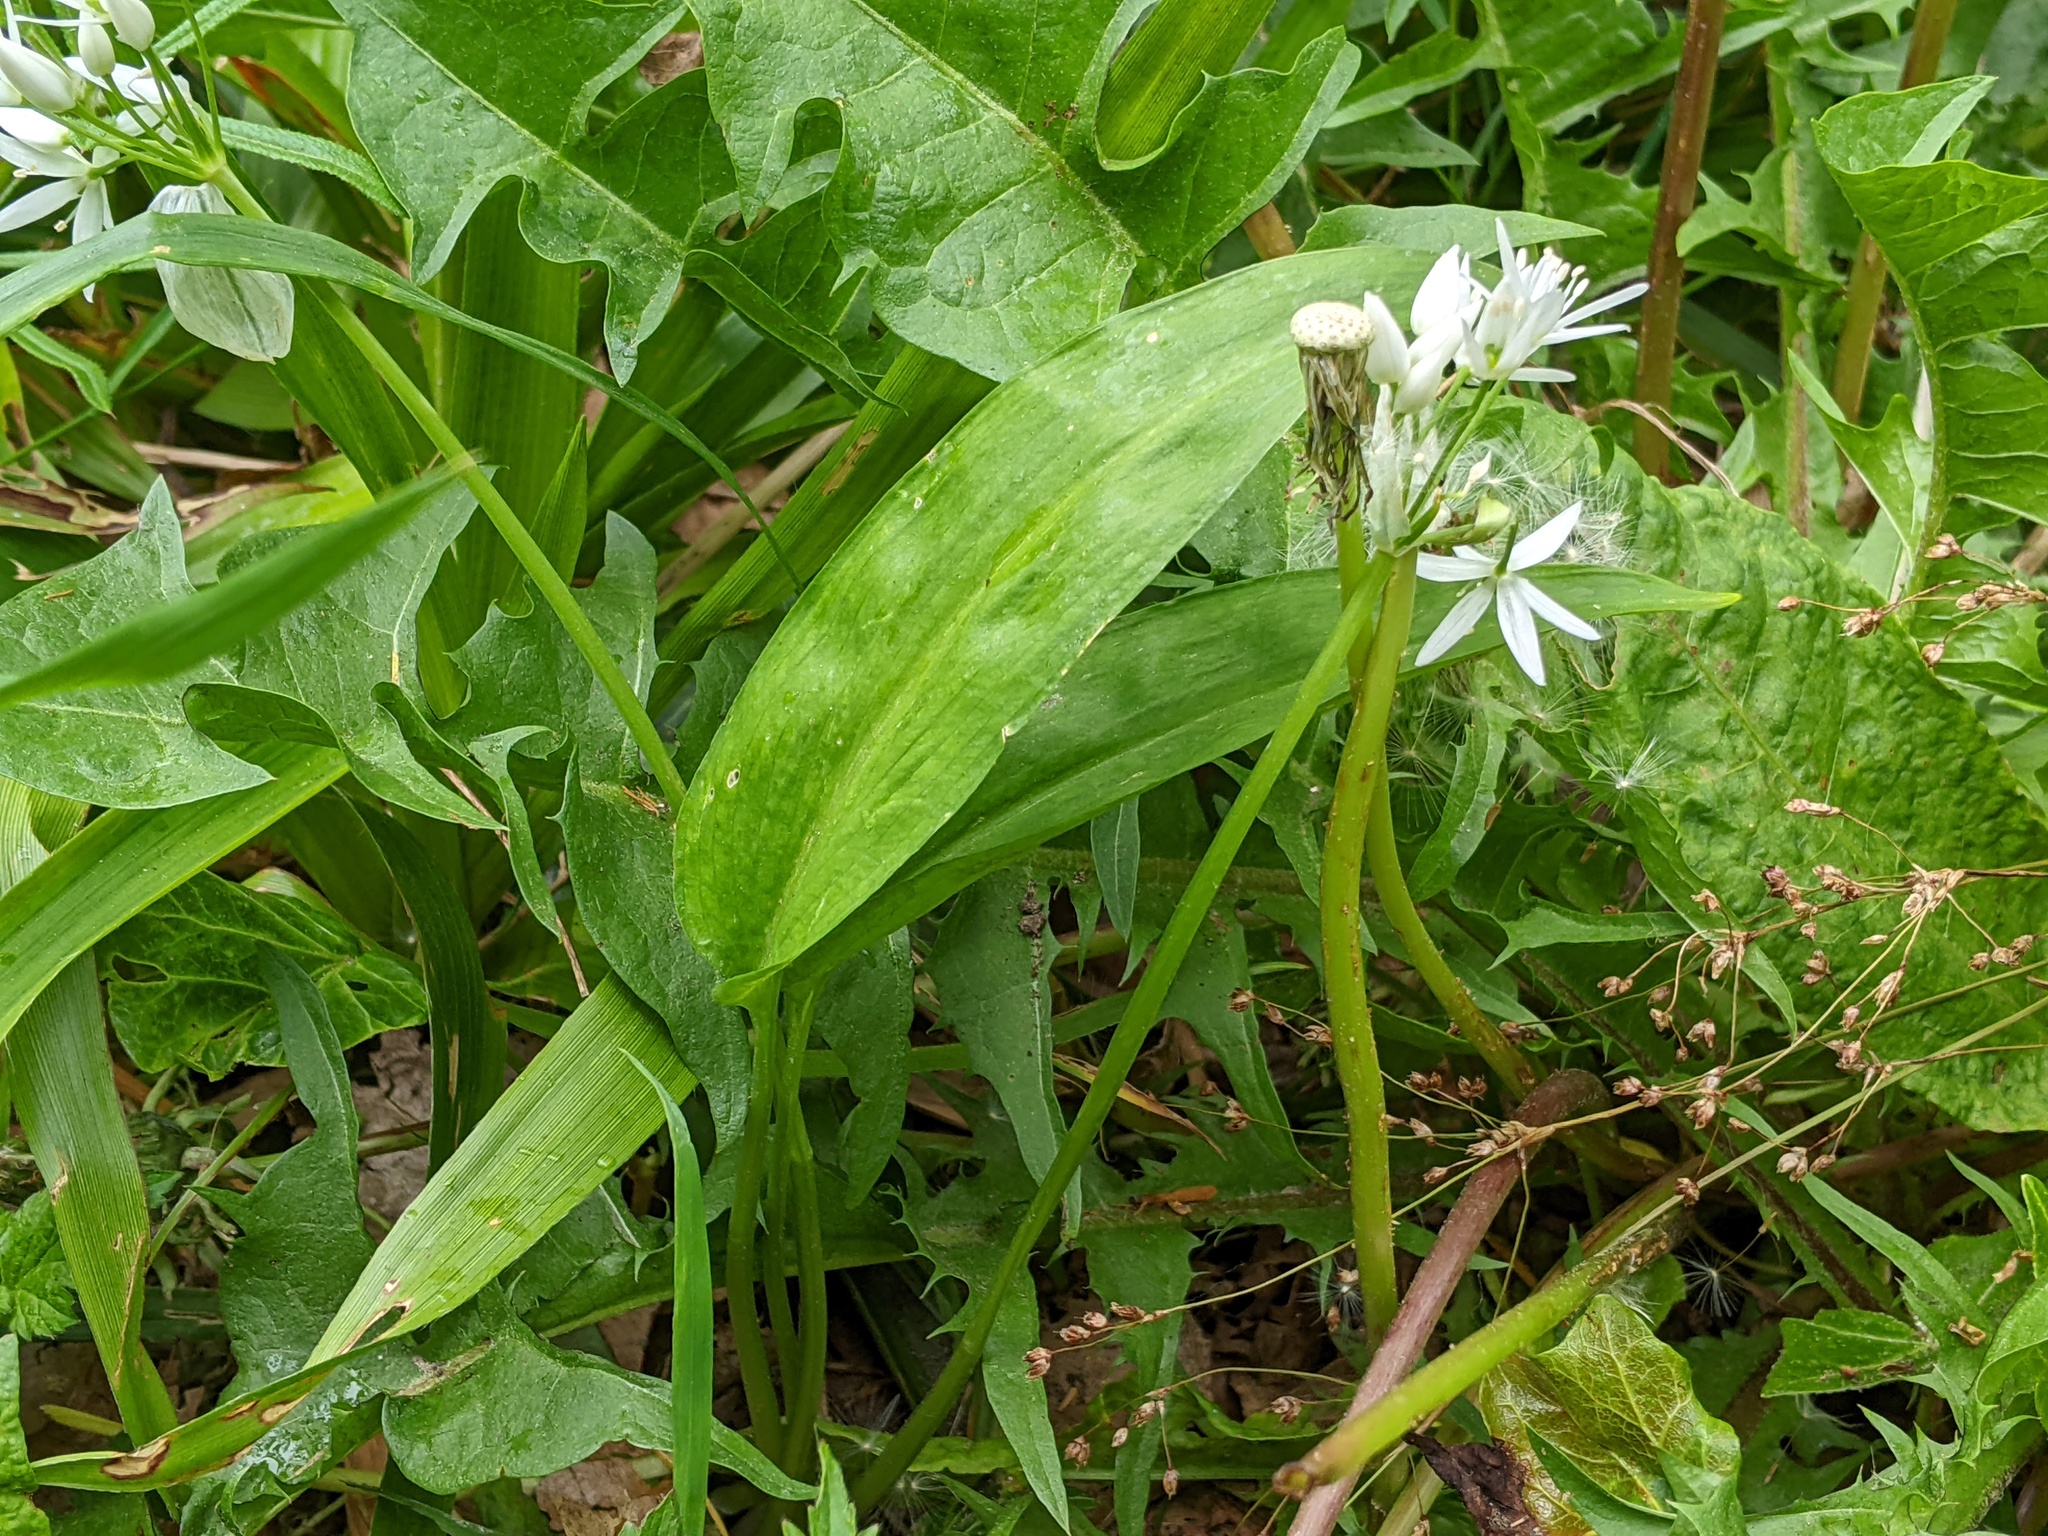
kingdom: Plantae
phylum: Tracheophyta
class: Liliopsida
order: Asparagales
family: Amaryllidaceae
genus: Allium
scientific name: Allium ursinum
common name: Ramsons
